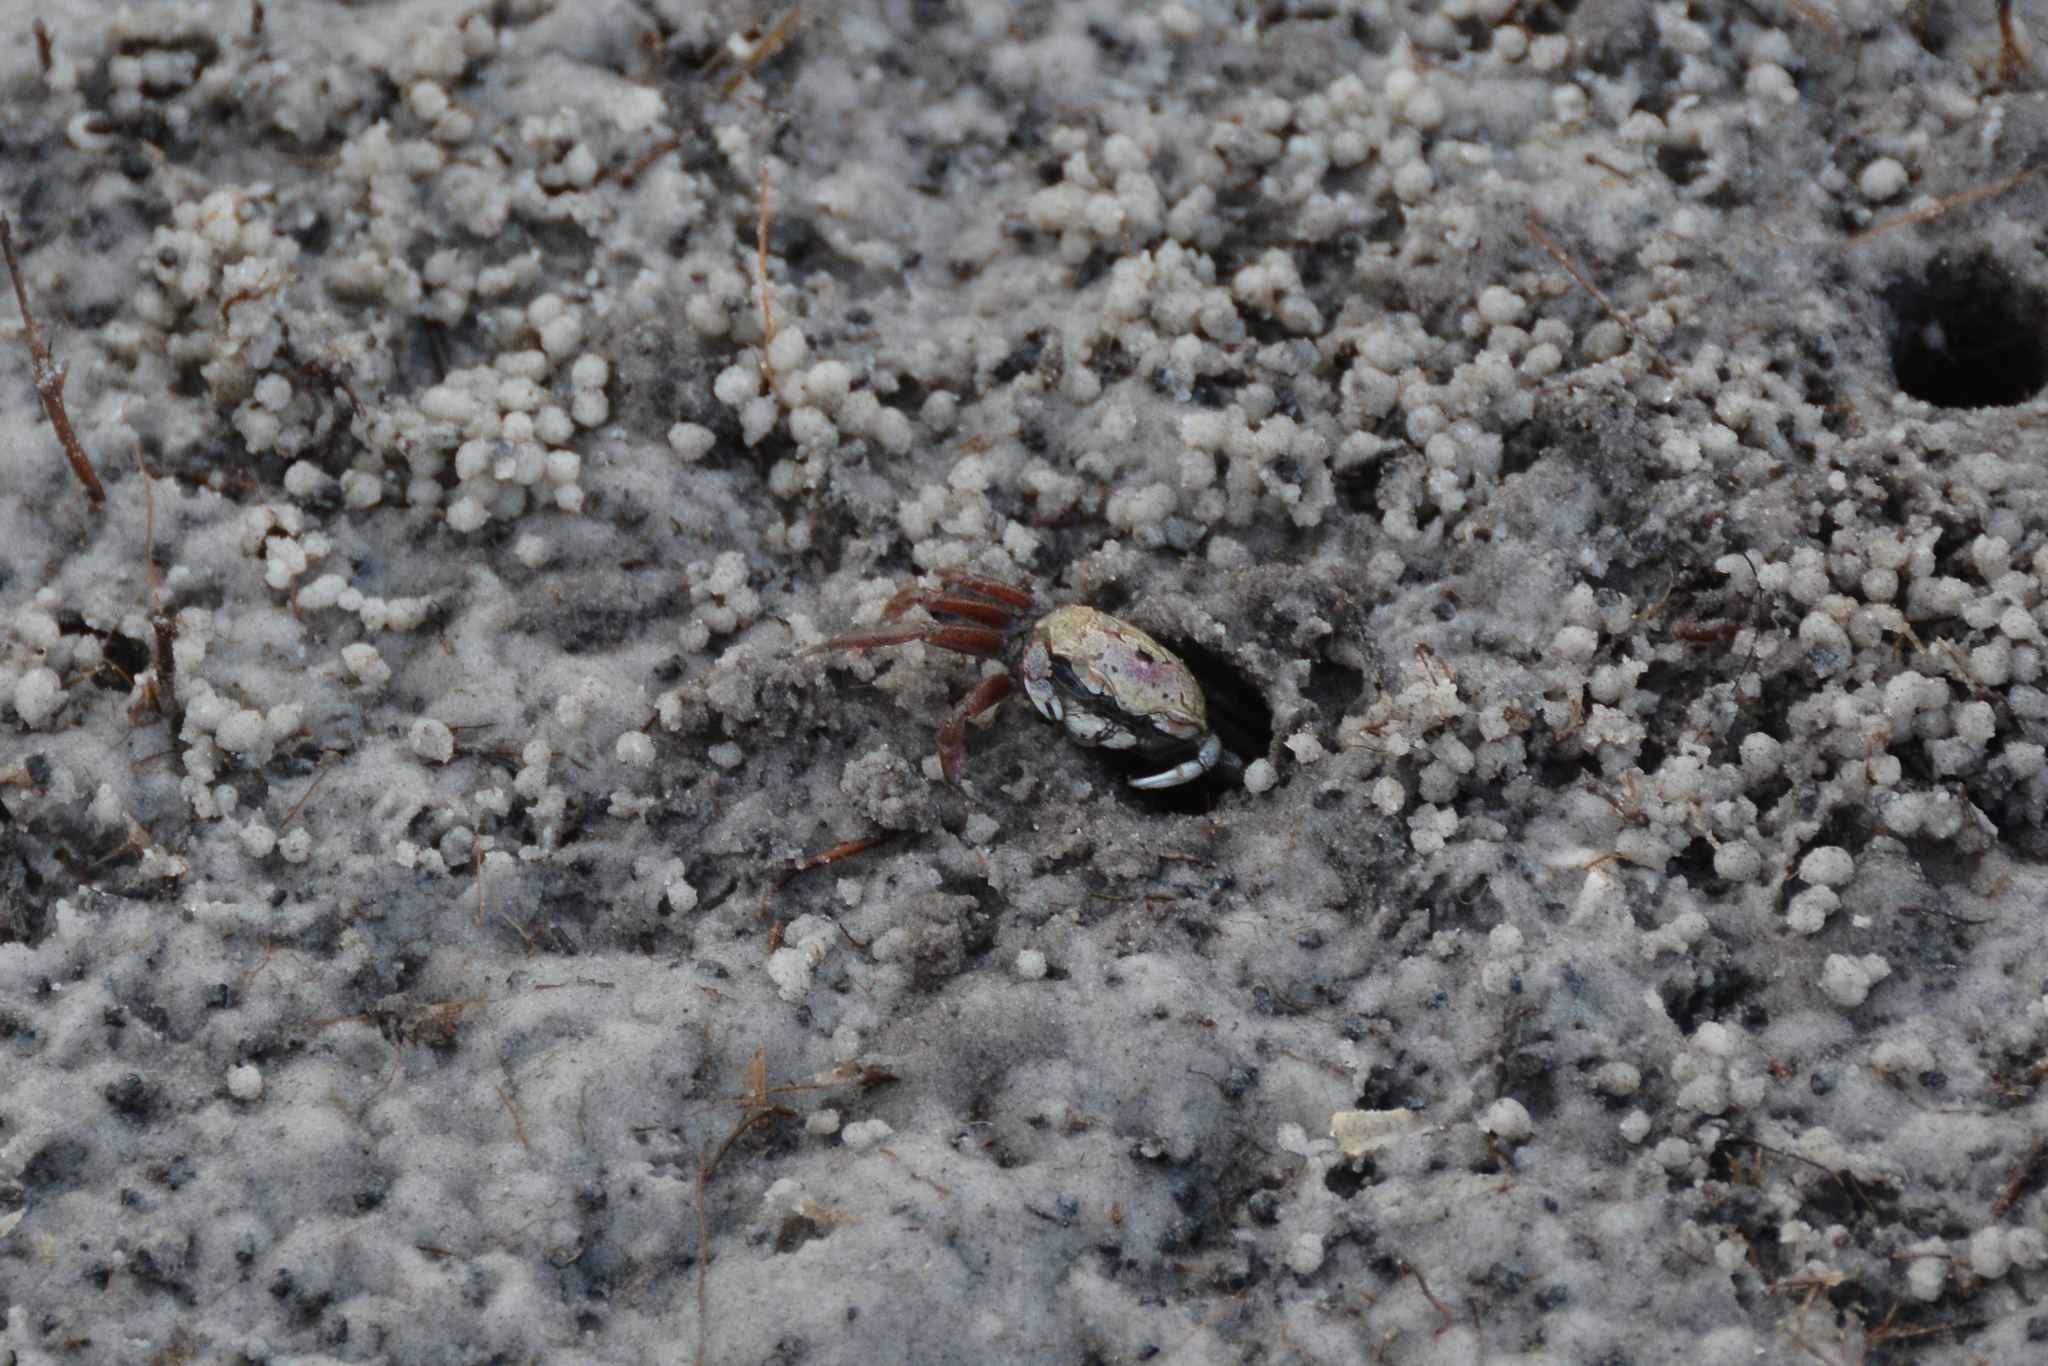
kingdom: Animalia
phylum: Arthropoda
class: Malacostraca
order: Decapoda
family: Ocypodidae
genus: Leptuca
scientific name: Leptuca pugilator
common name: Atlantic sand fiddler crab
